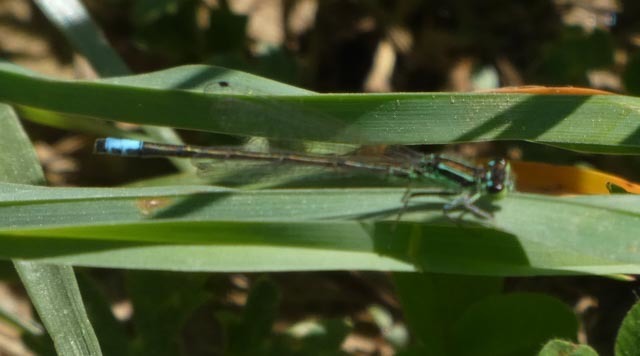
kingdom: Animalia
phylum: Arthropoda
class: Insecta
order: Odonata
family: Coenagrionidae
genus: Ischnura
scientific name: Ischnura verticalis
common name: Eastern forktail
